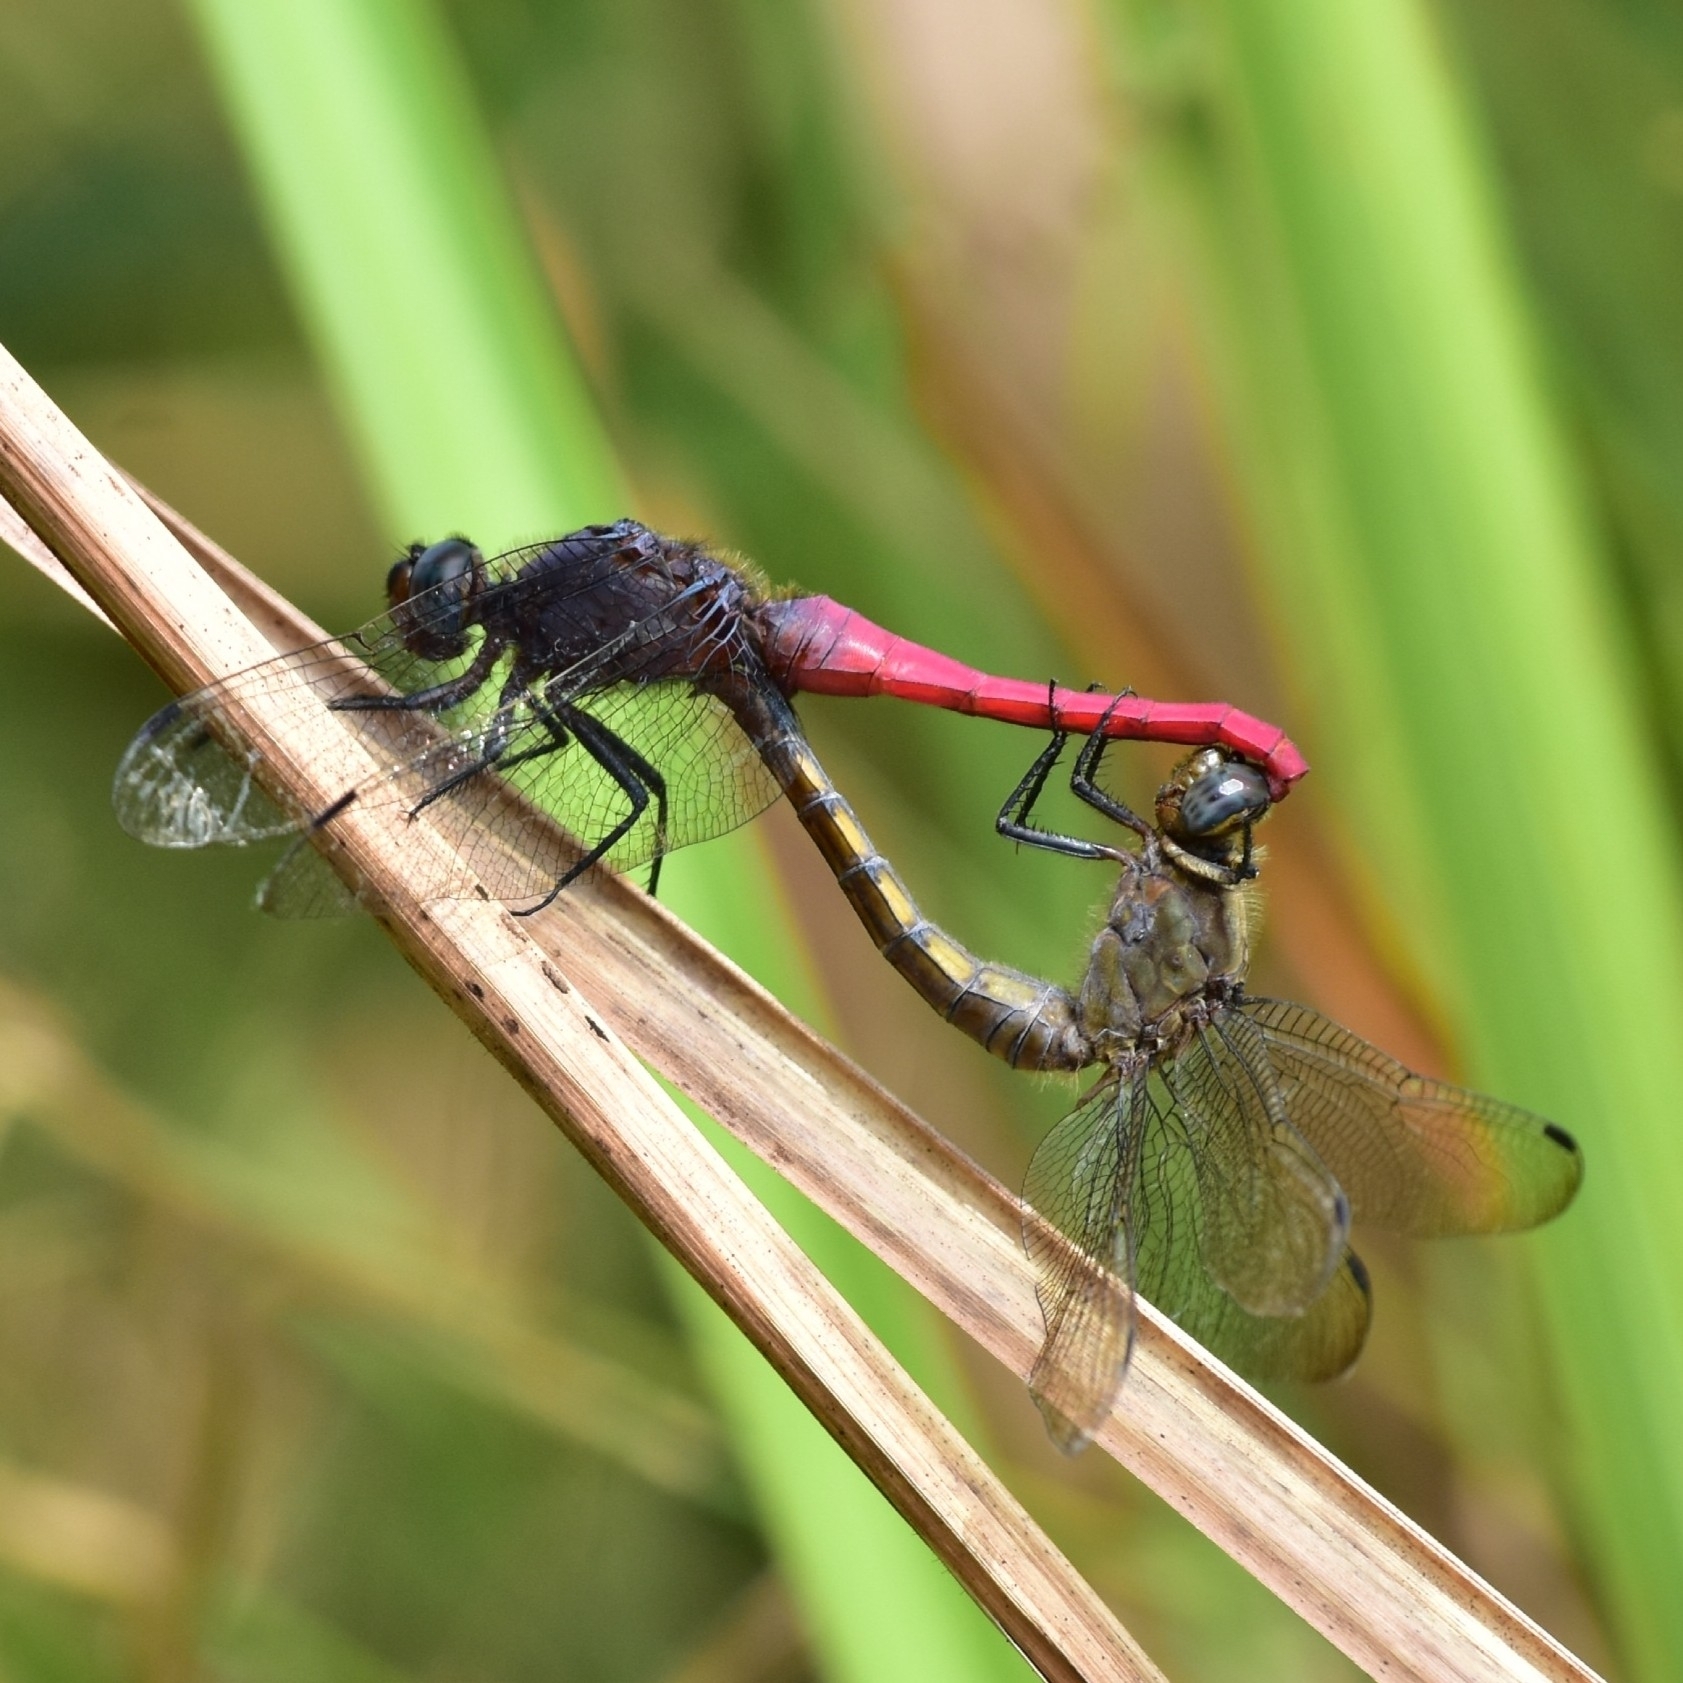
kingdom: Animalia
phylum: Arthropoda
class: Insecta
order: Odonata
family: Libellulidae
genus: Orthetrum
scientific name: Orthetrum pruinosum
